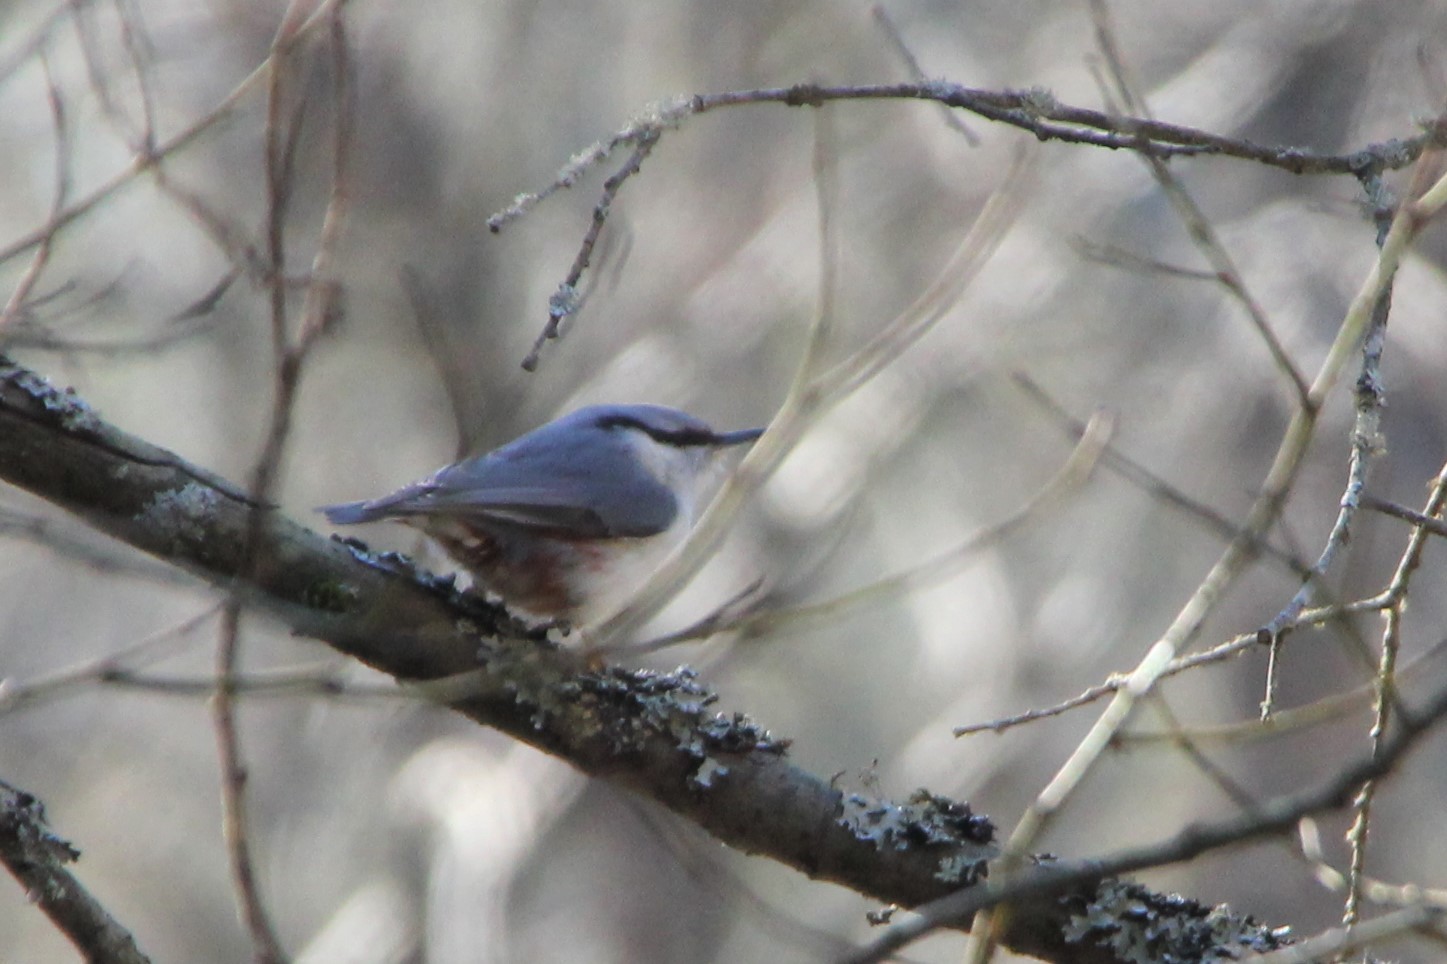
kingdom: Animalia
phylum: Chordata
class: Aves
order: Passeriformes
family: Sittidae
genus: Sitta
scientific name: Sitta europaea
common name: Eurasian nuthatch
